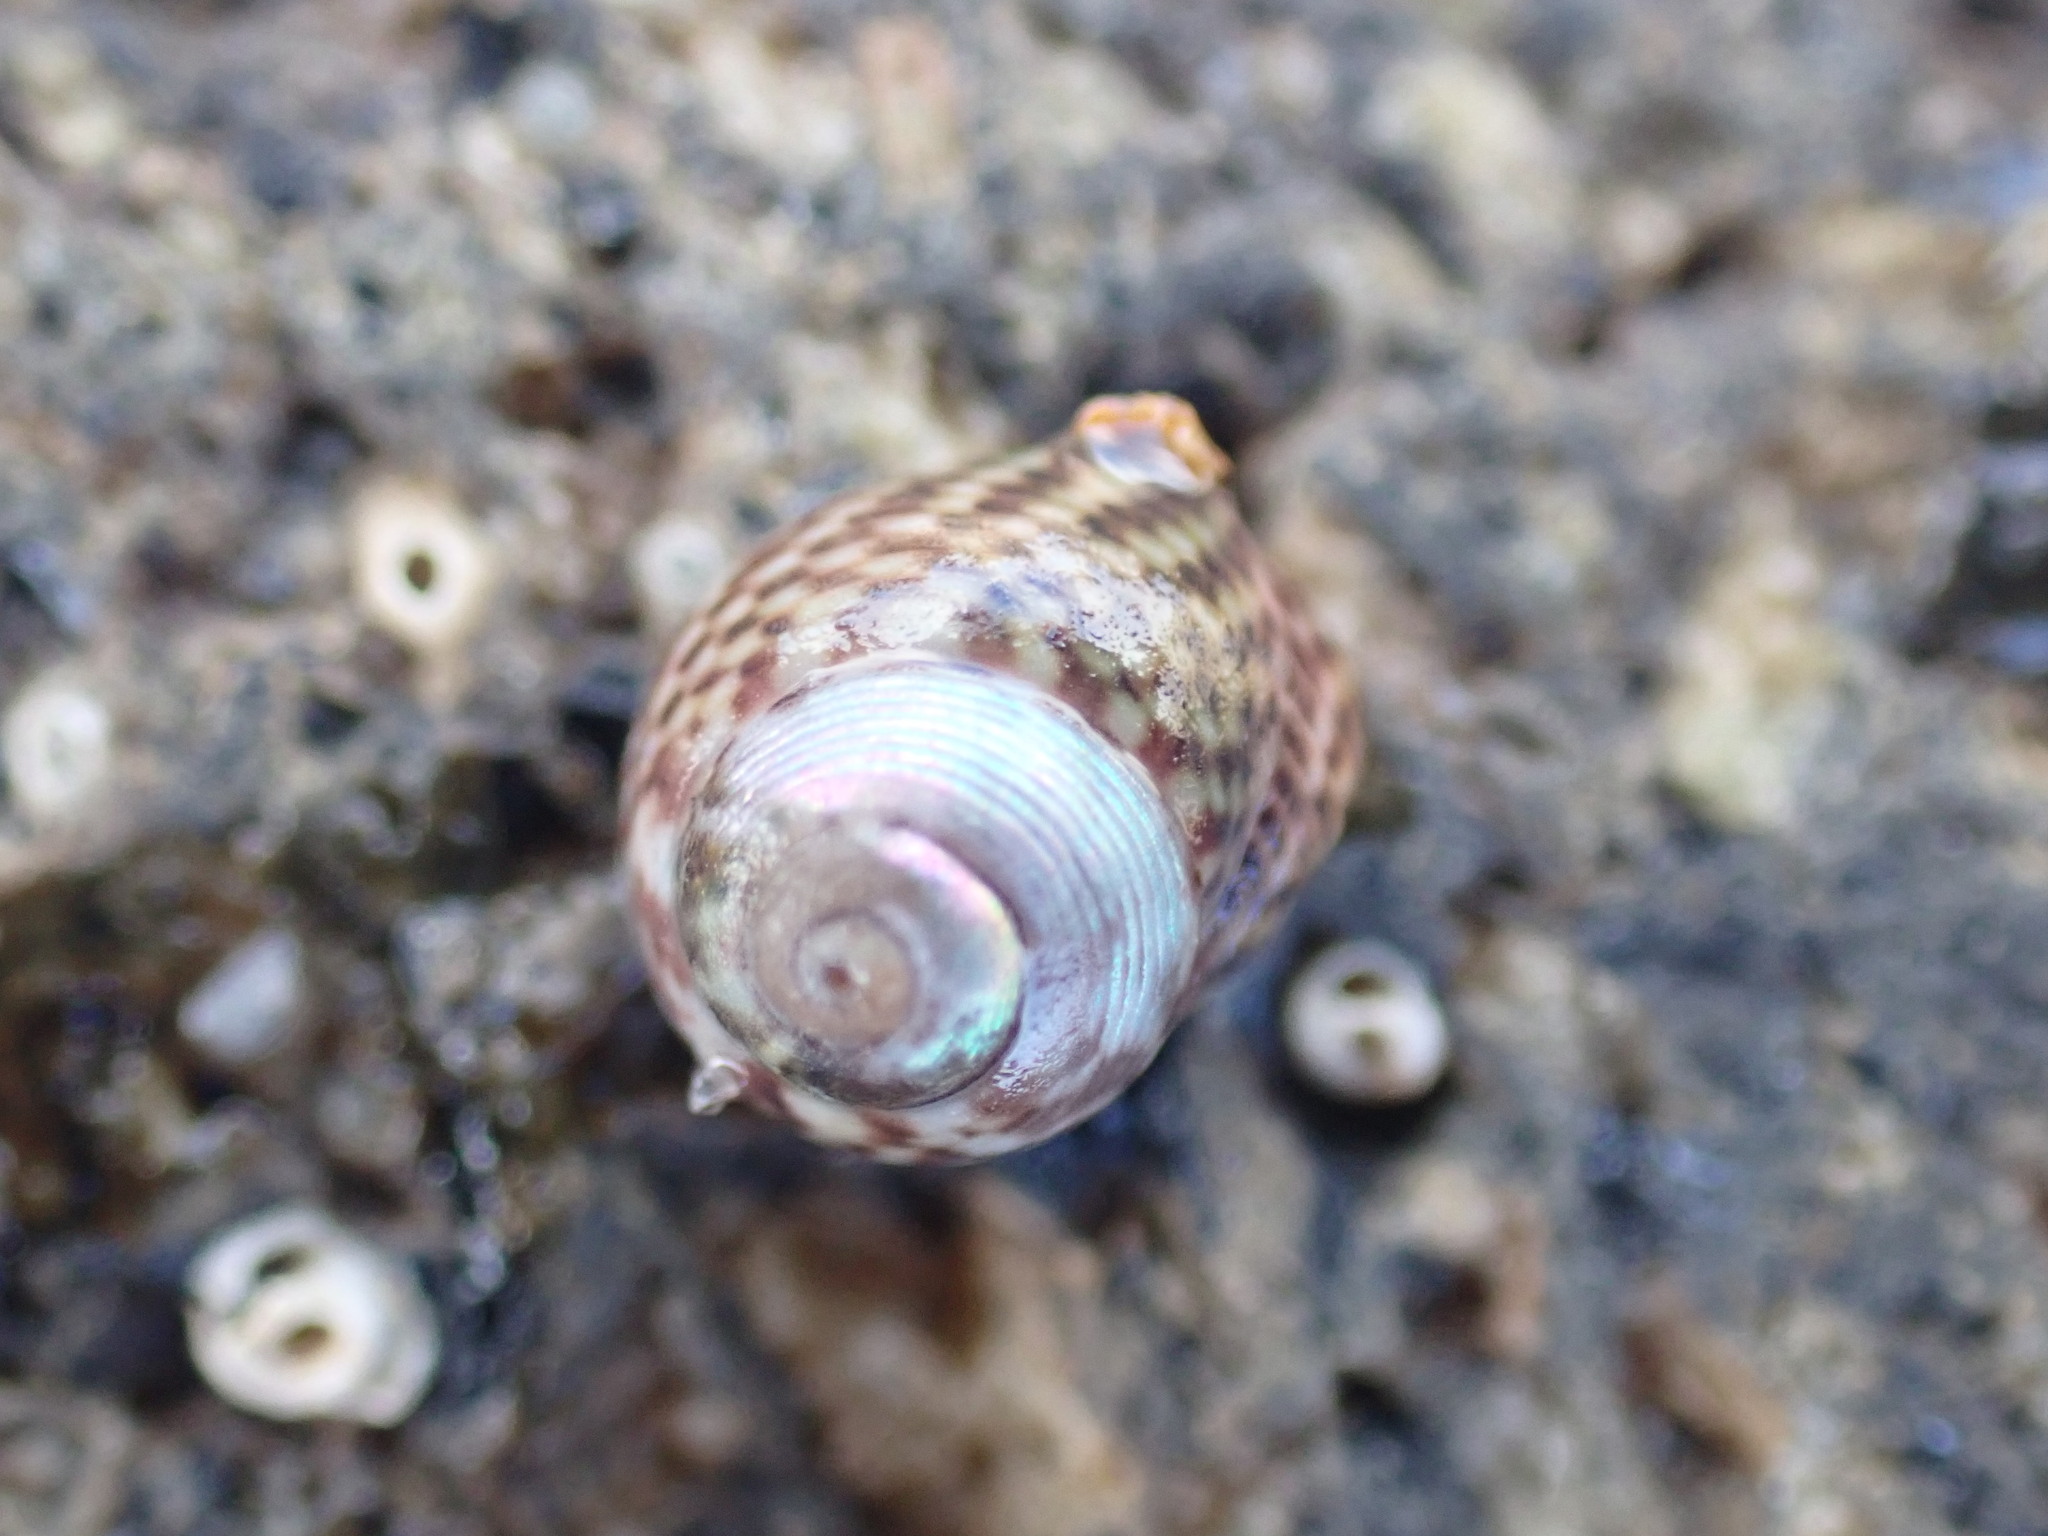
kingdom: Animalia
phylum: Mollusca
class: Gastropoda
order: Trochida
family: Trochidae
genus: Micrelenchus
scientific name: Micrelenchus tessellatus
